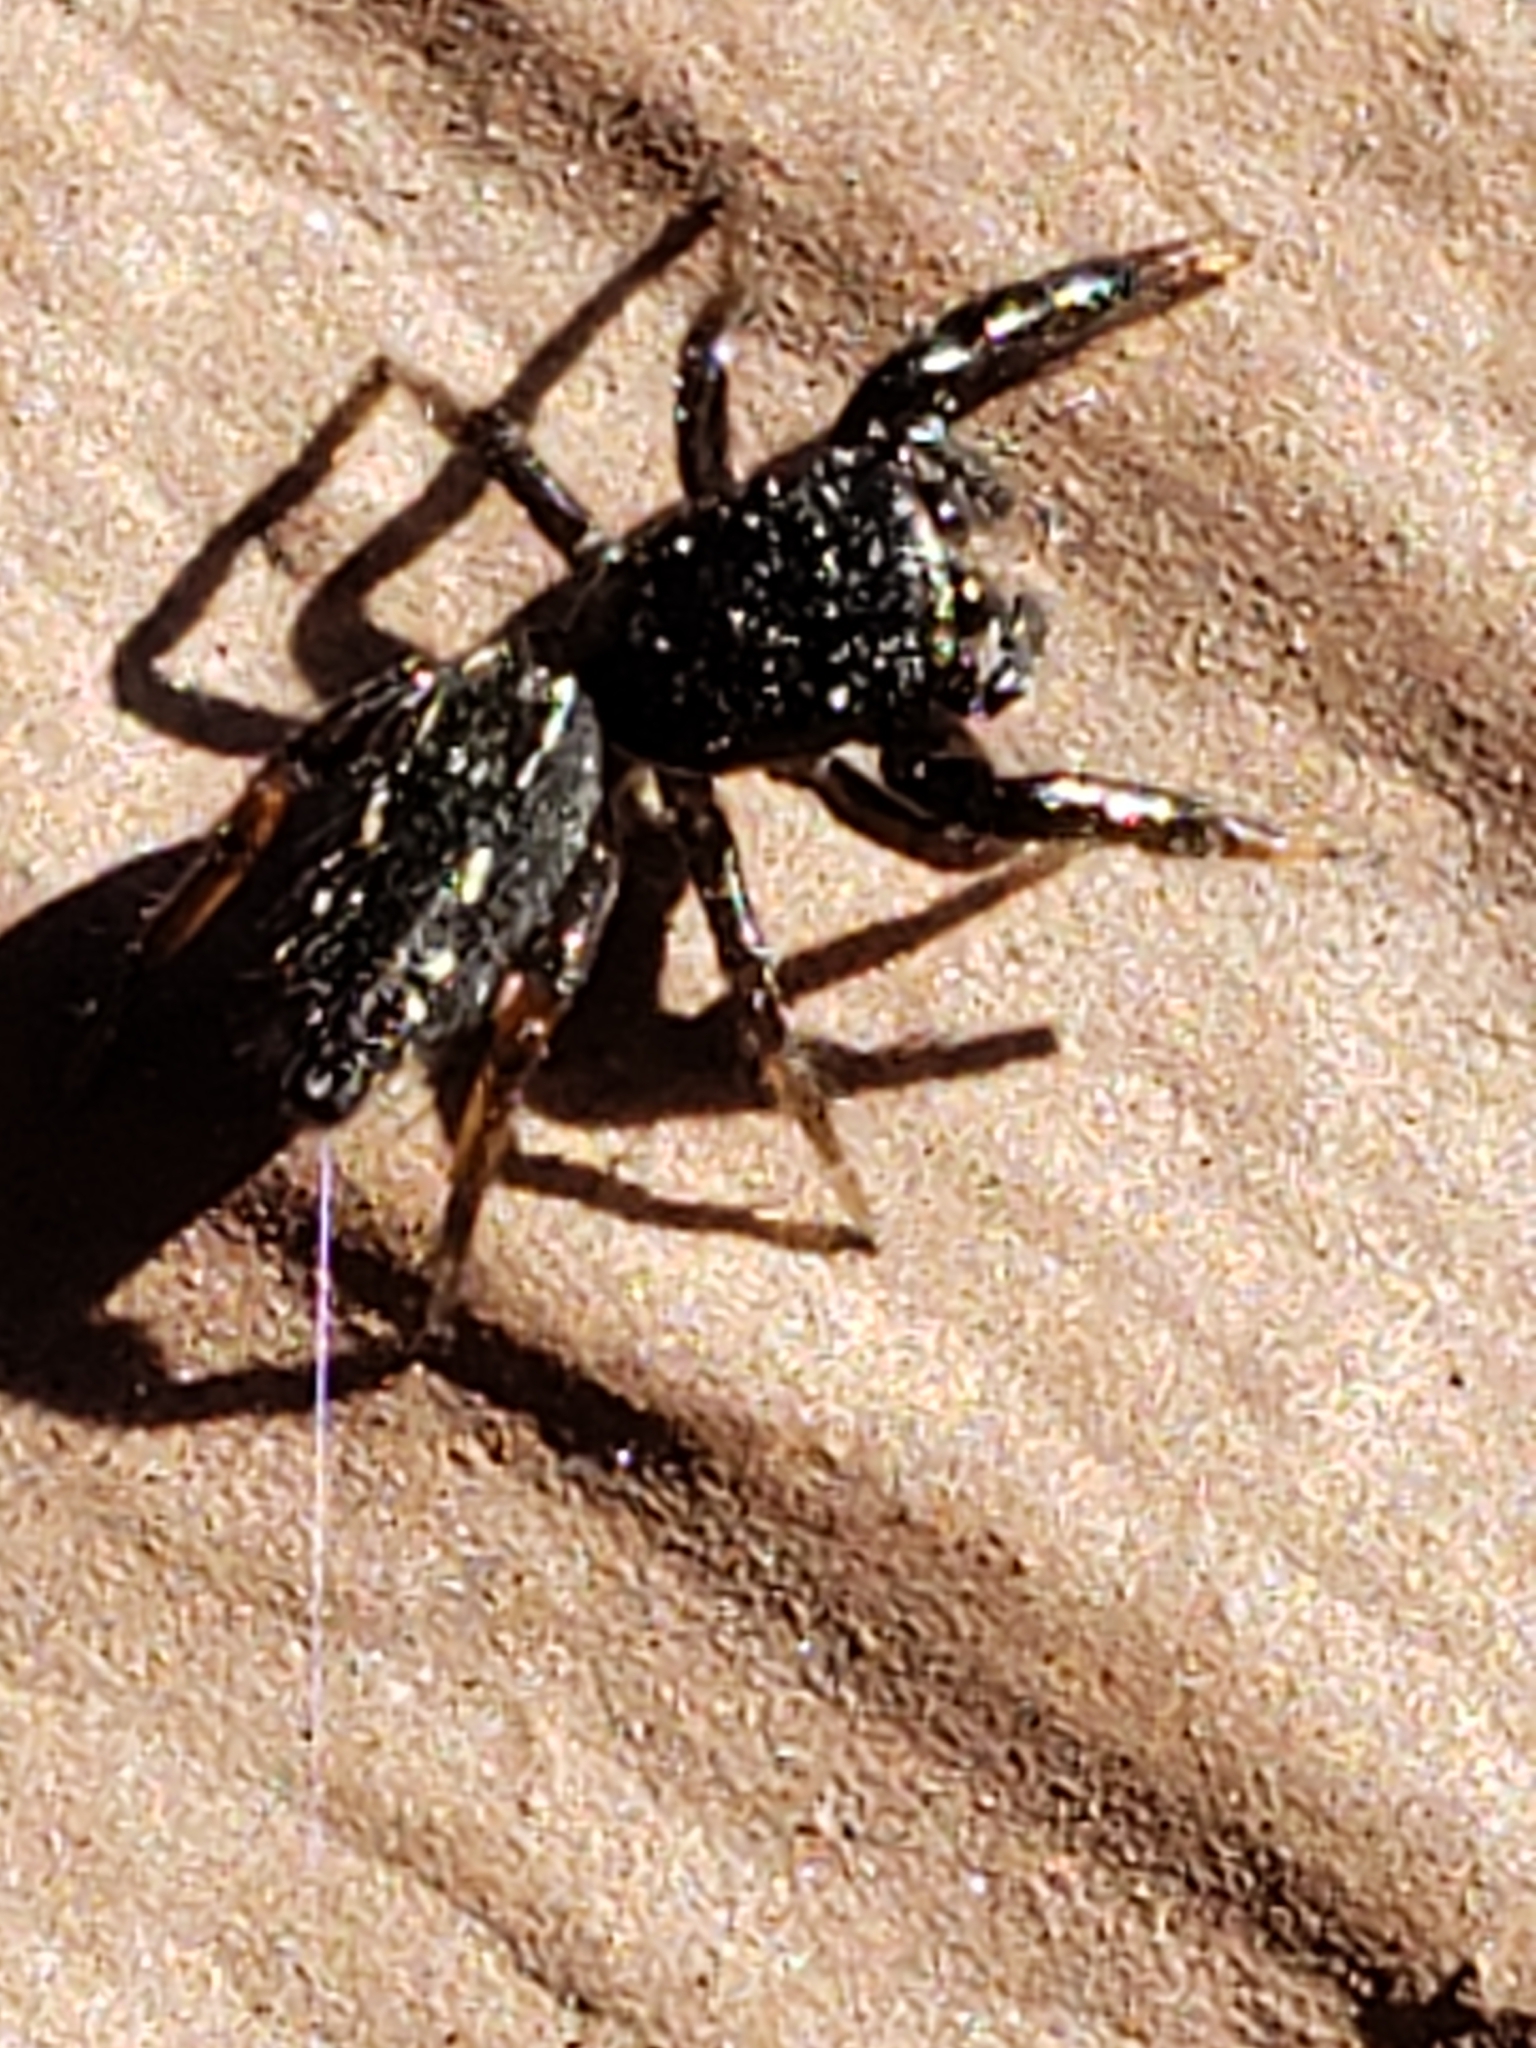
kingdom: Animalia
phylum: Arthropoda
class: Arachnida
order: Araneae
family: Salticidae
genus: Metacyrba
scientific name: Metacyrba taeniola
